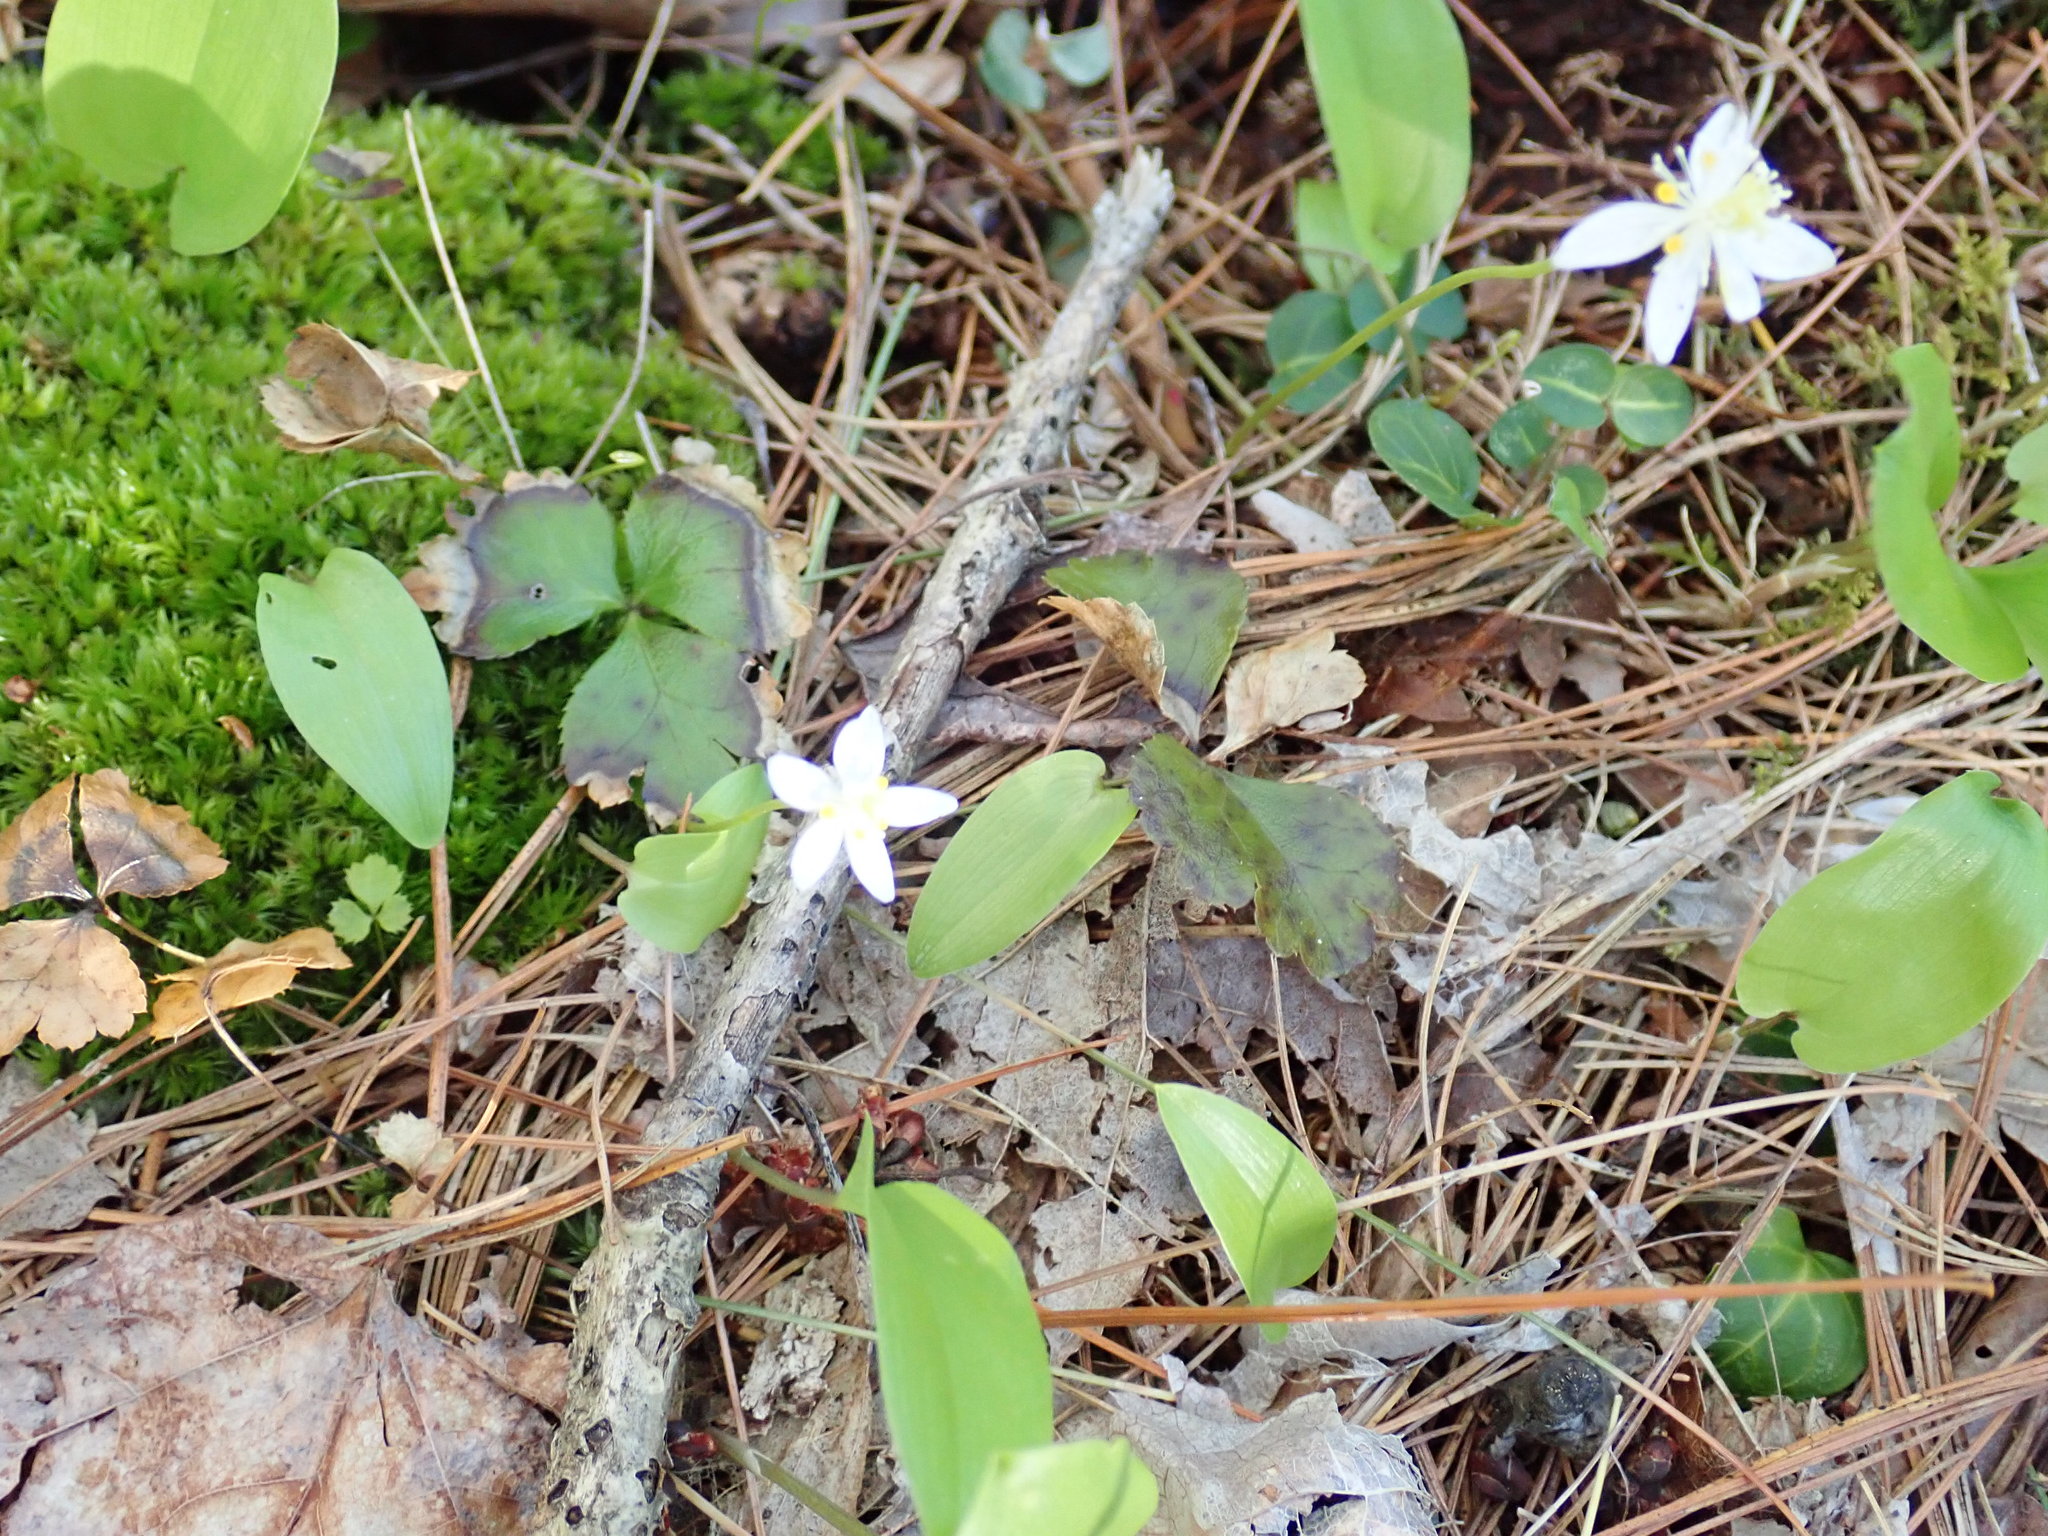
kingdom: Plantae
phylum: Tracheophyta
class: Magnoliopsida
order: Ranunculales
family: Ranunculaceae
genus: Coptis
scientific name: Coptis trifolia
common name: Canker-root
